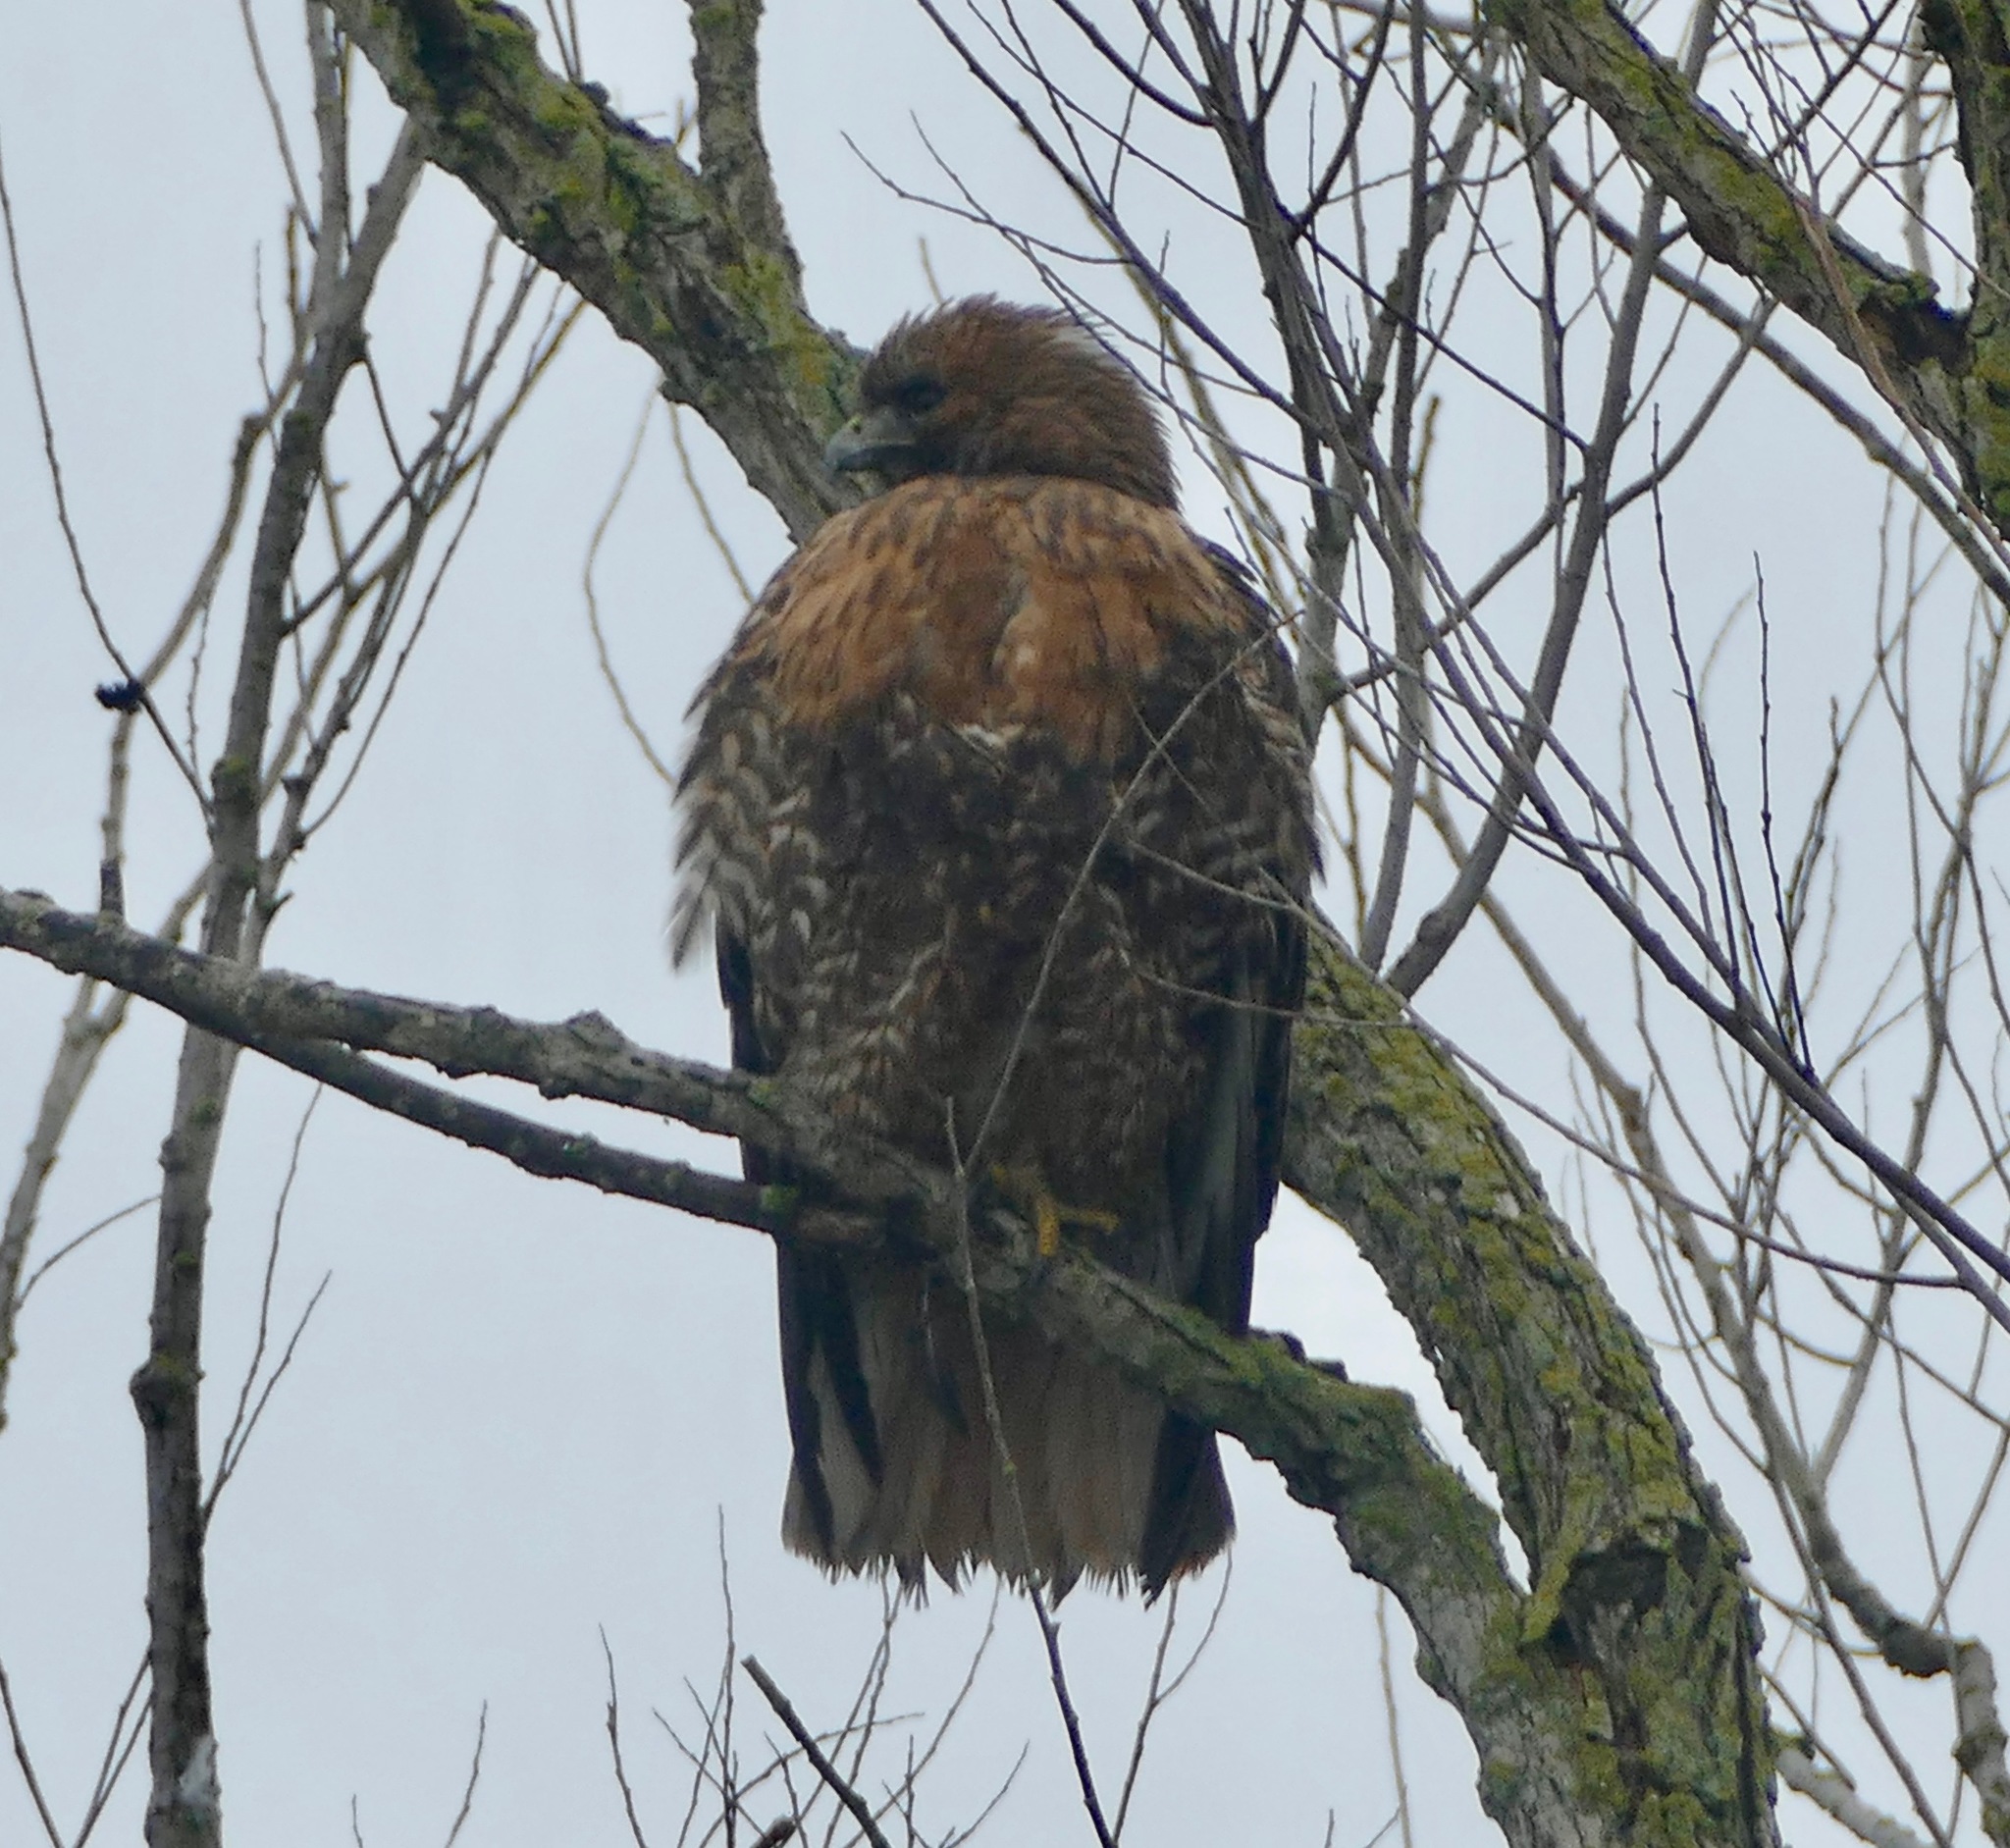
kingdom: Animalia
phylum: Chordata
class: Aves
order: Accipitriformes
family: Accipitridae
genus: Buteo
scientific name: Buteo jamaicensis
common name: Red-tailed hawk
